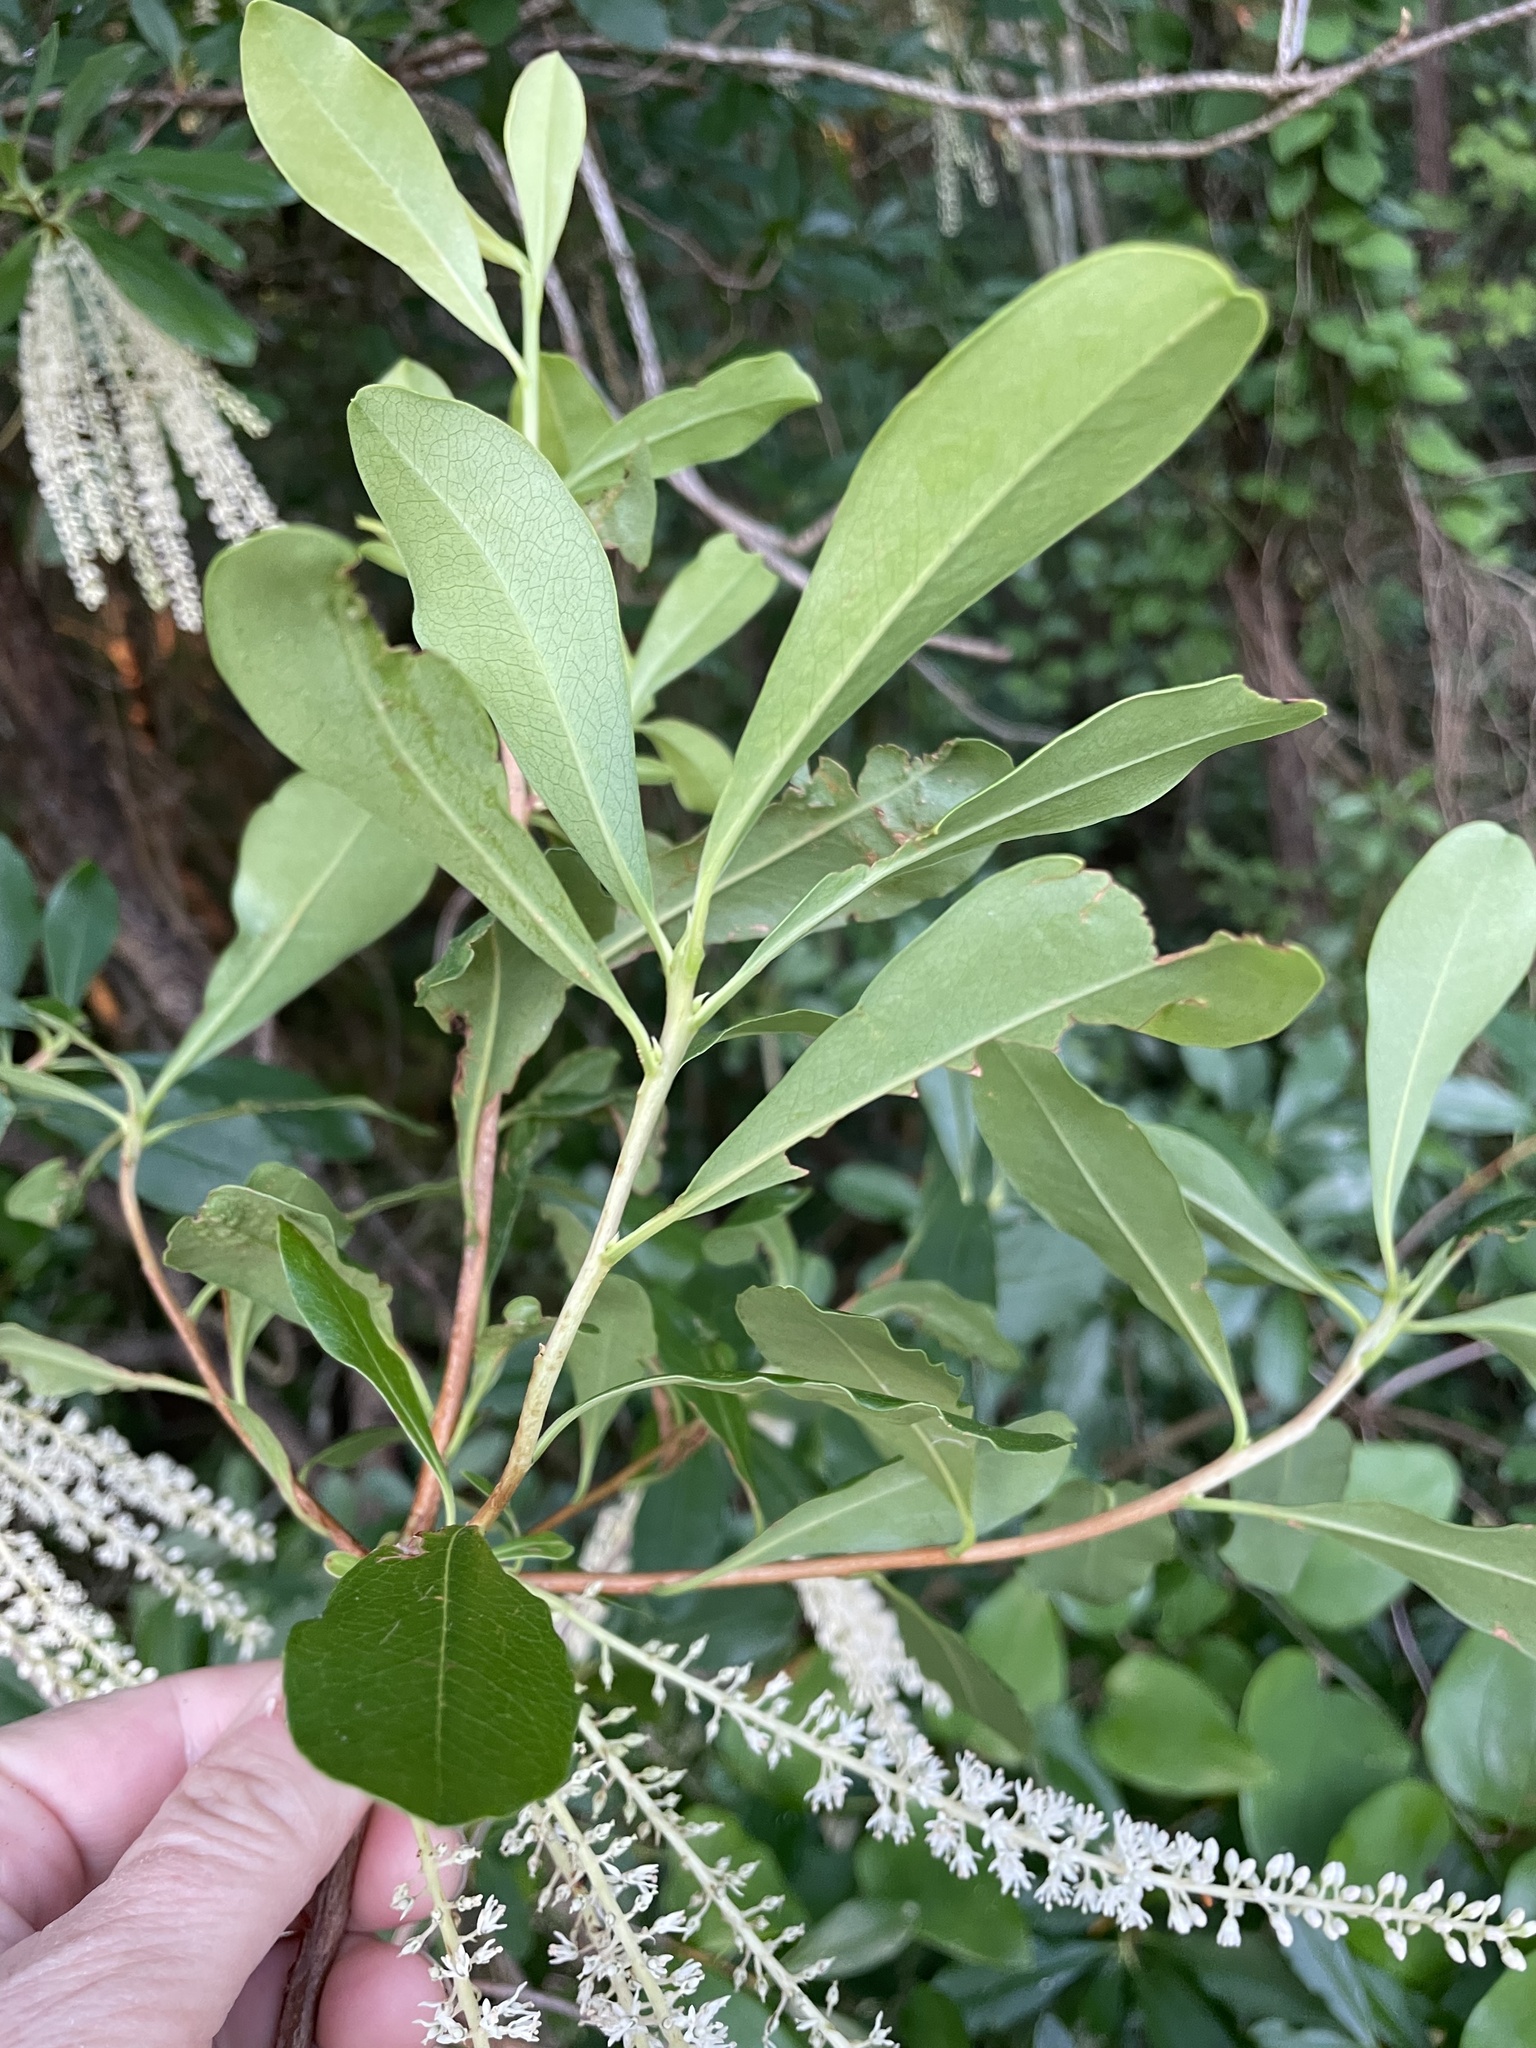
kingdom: Plantae
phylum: Tracheophyta
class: Magnoliopsida
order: Ericales
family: Cyrillaceae
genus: Cyrilla
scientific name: Cyrilla racemiflora
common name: Black titi
